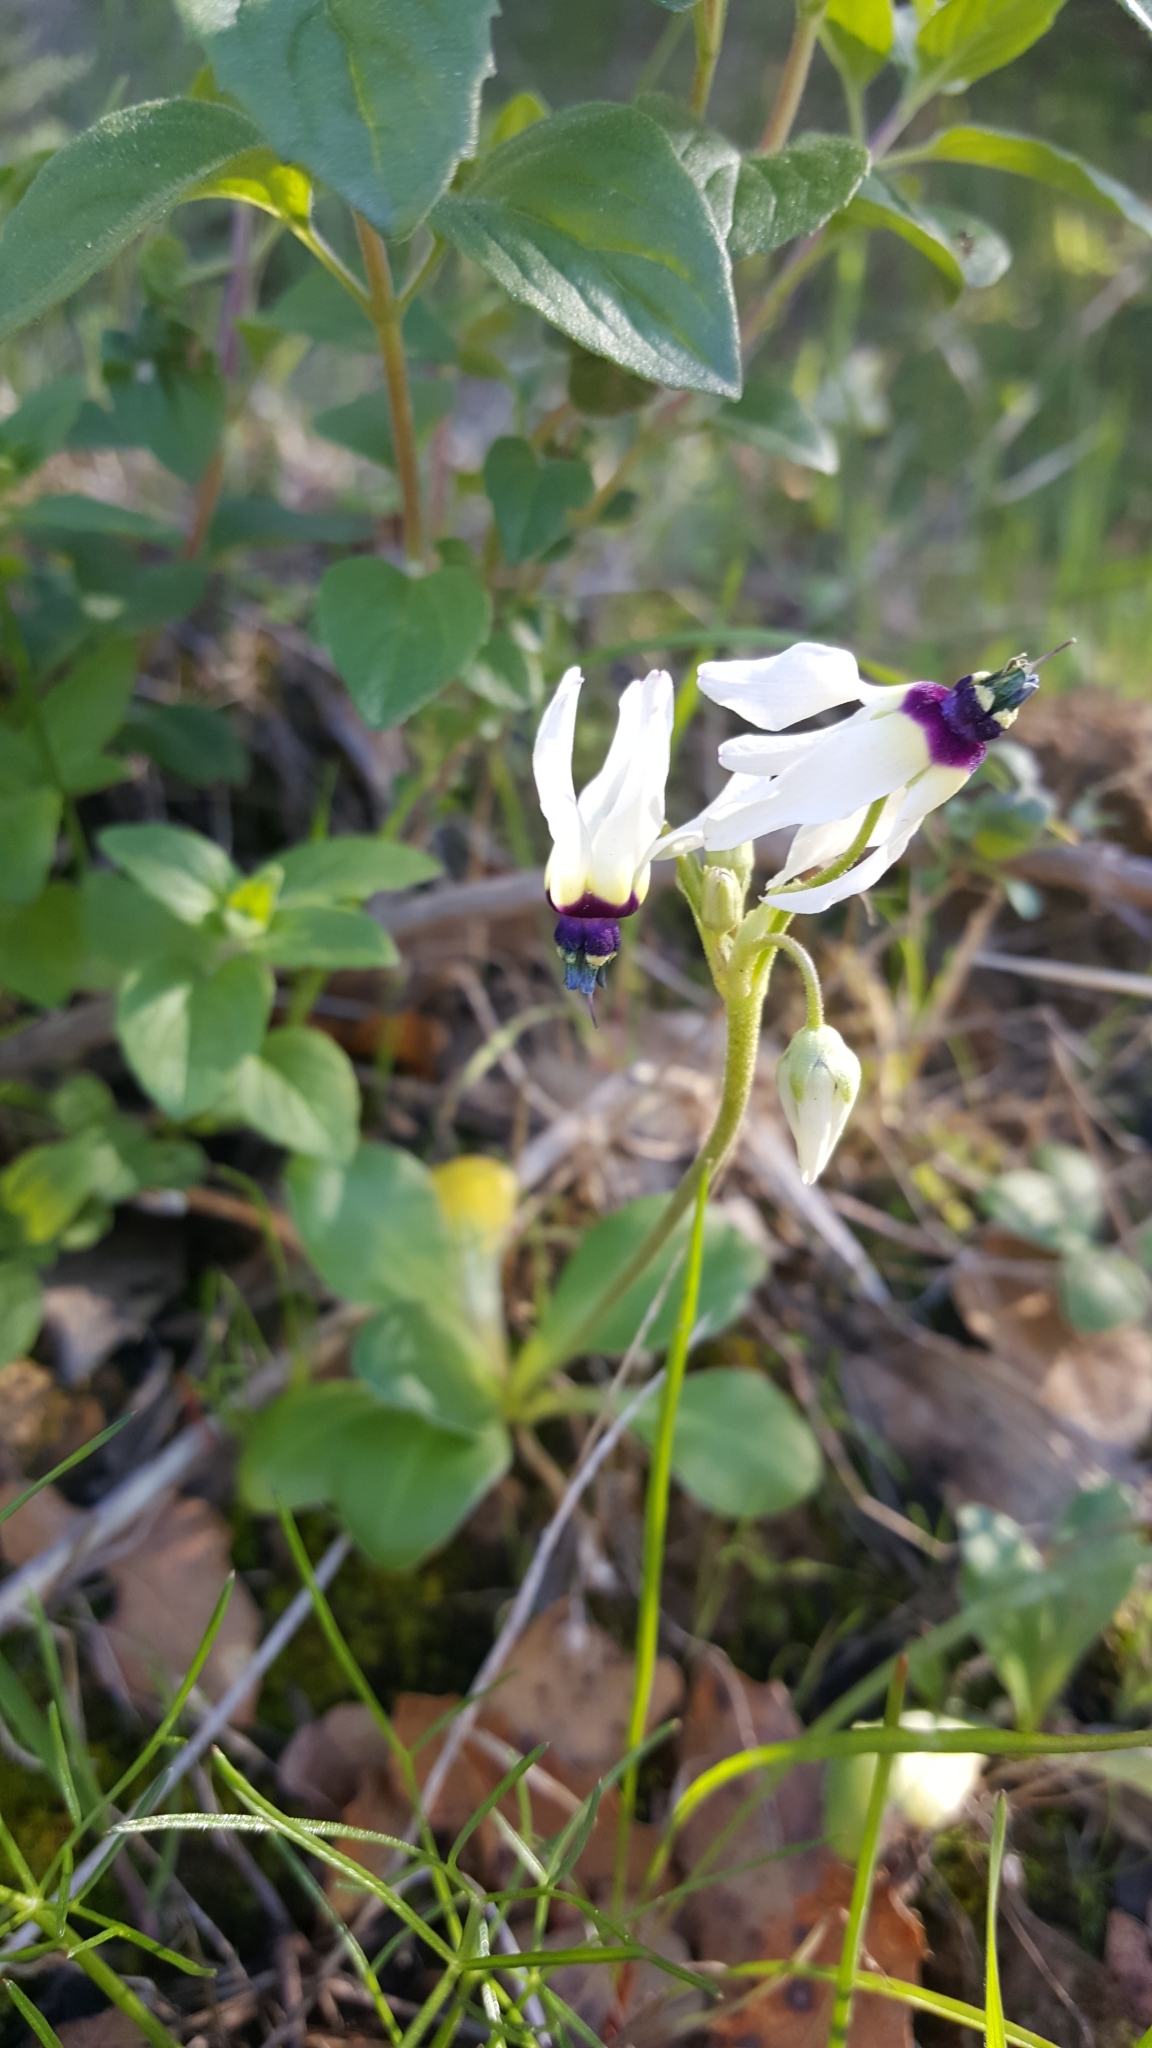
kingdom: Plantae
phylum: Tracheophyta
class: Magnoliopsida
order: Ericales
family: Primulaceae
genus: Dodecatheon
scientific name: Dodecatheon clevelandii
